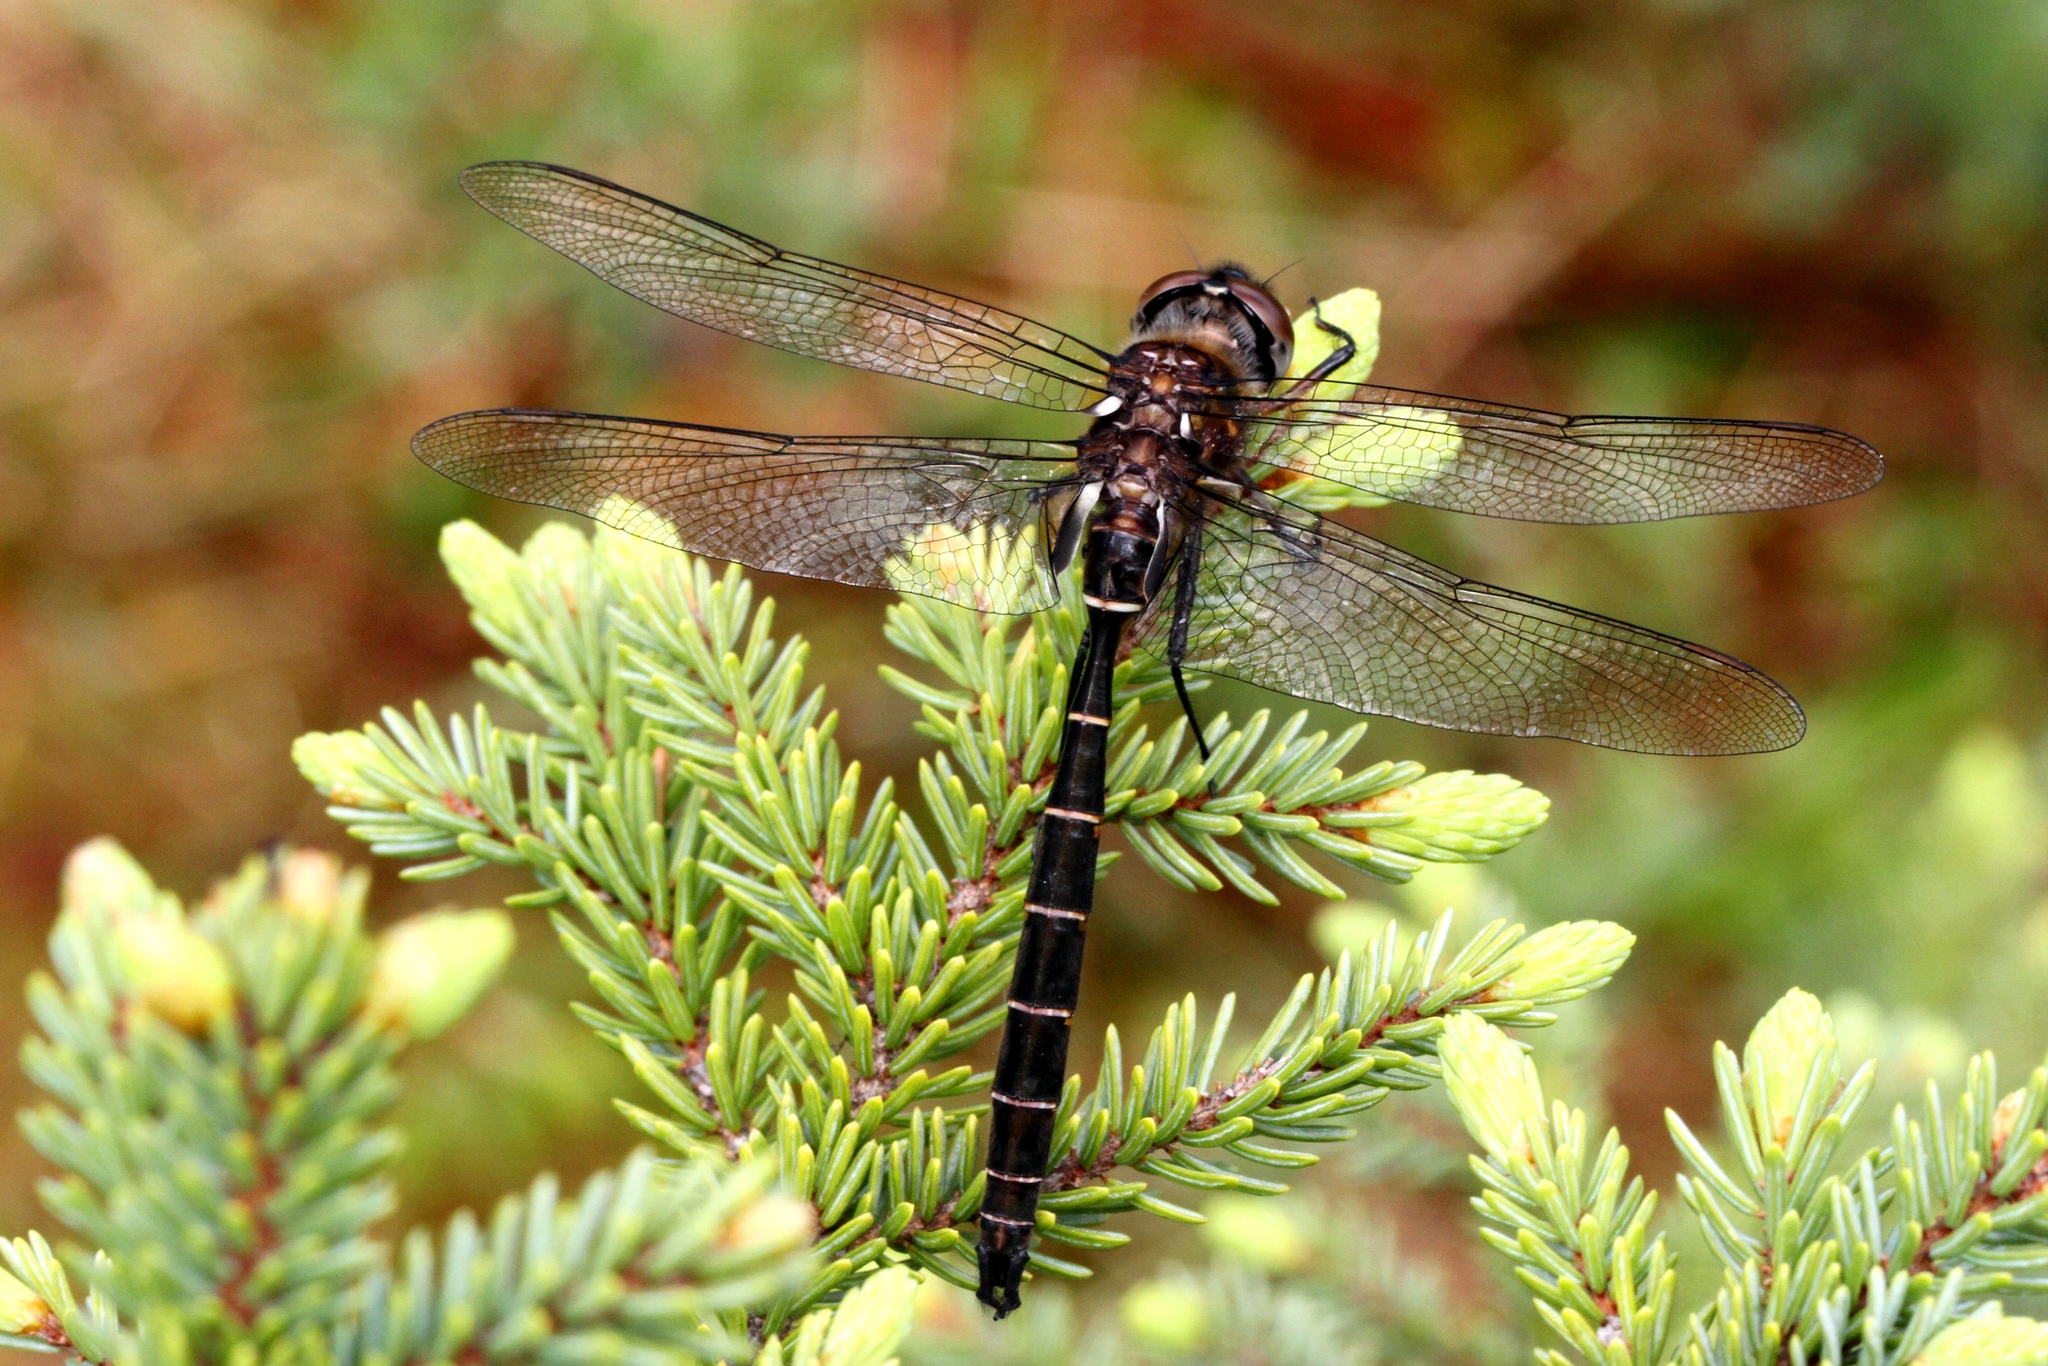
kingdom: Animalia
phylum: Arthropoda
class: Insecta
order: Odonata
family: Corduliidae
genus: Somatochlora
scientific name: Somatochlora cingulata
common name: Lake emerald
